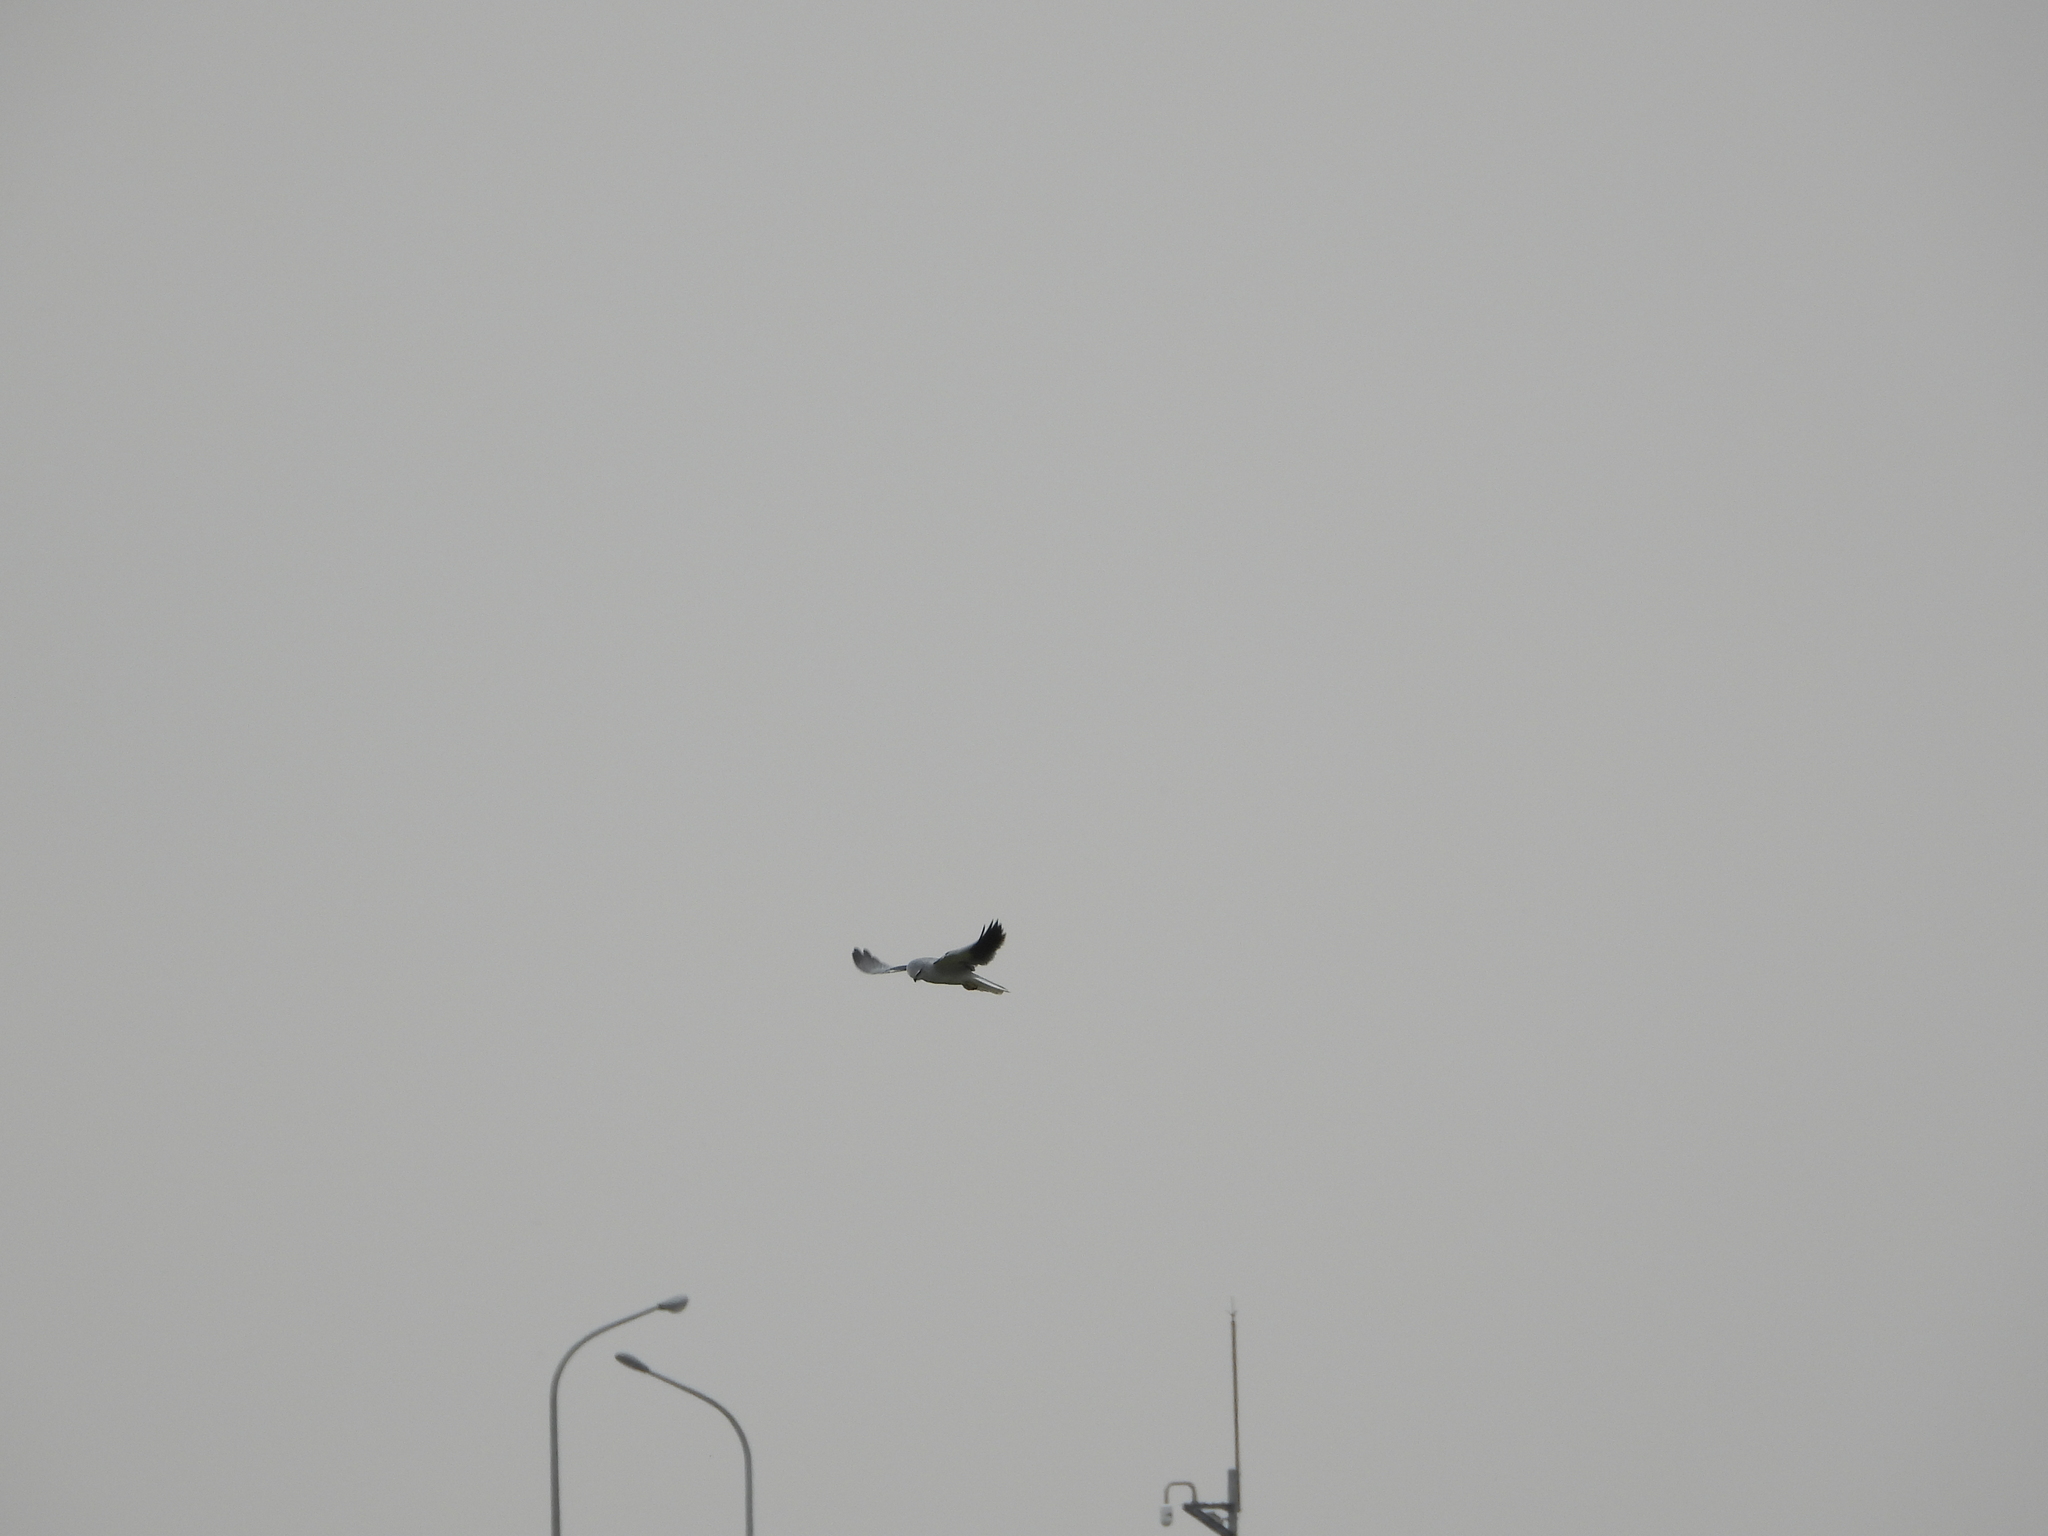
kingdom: Animalia
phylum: Chordata
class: Aves
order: Accipitriformes
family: Accipitridae
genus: Elanus
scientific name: Elanus caeruleus
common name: Black-winged kite
